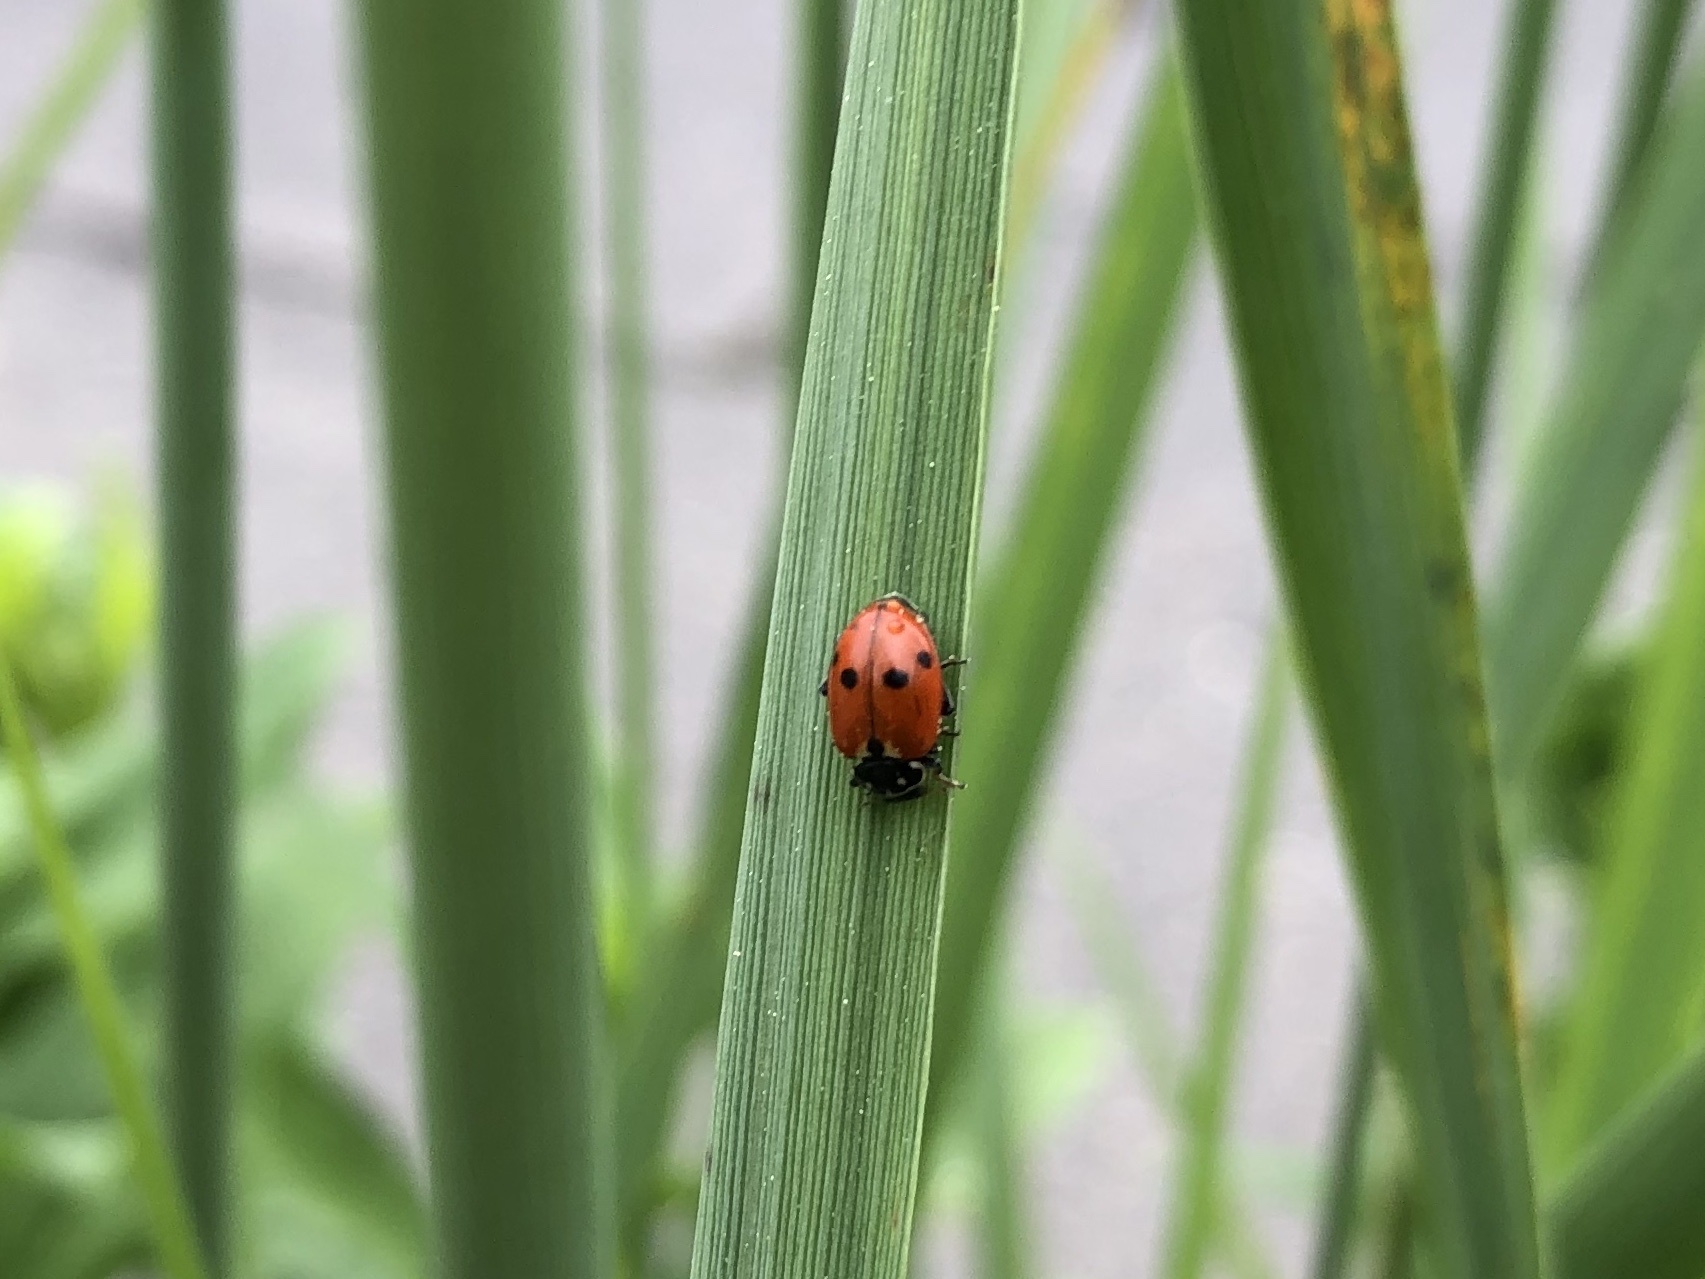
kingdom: Animalia
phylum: Arthropoda
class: Insecta
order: Coleoptera
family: Coccinellidae
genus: Hippodamia
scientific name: Hippodamia variegata
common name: Ladybird beetle
